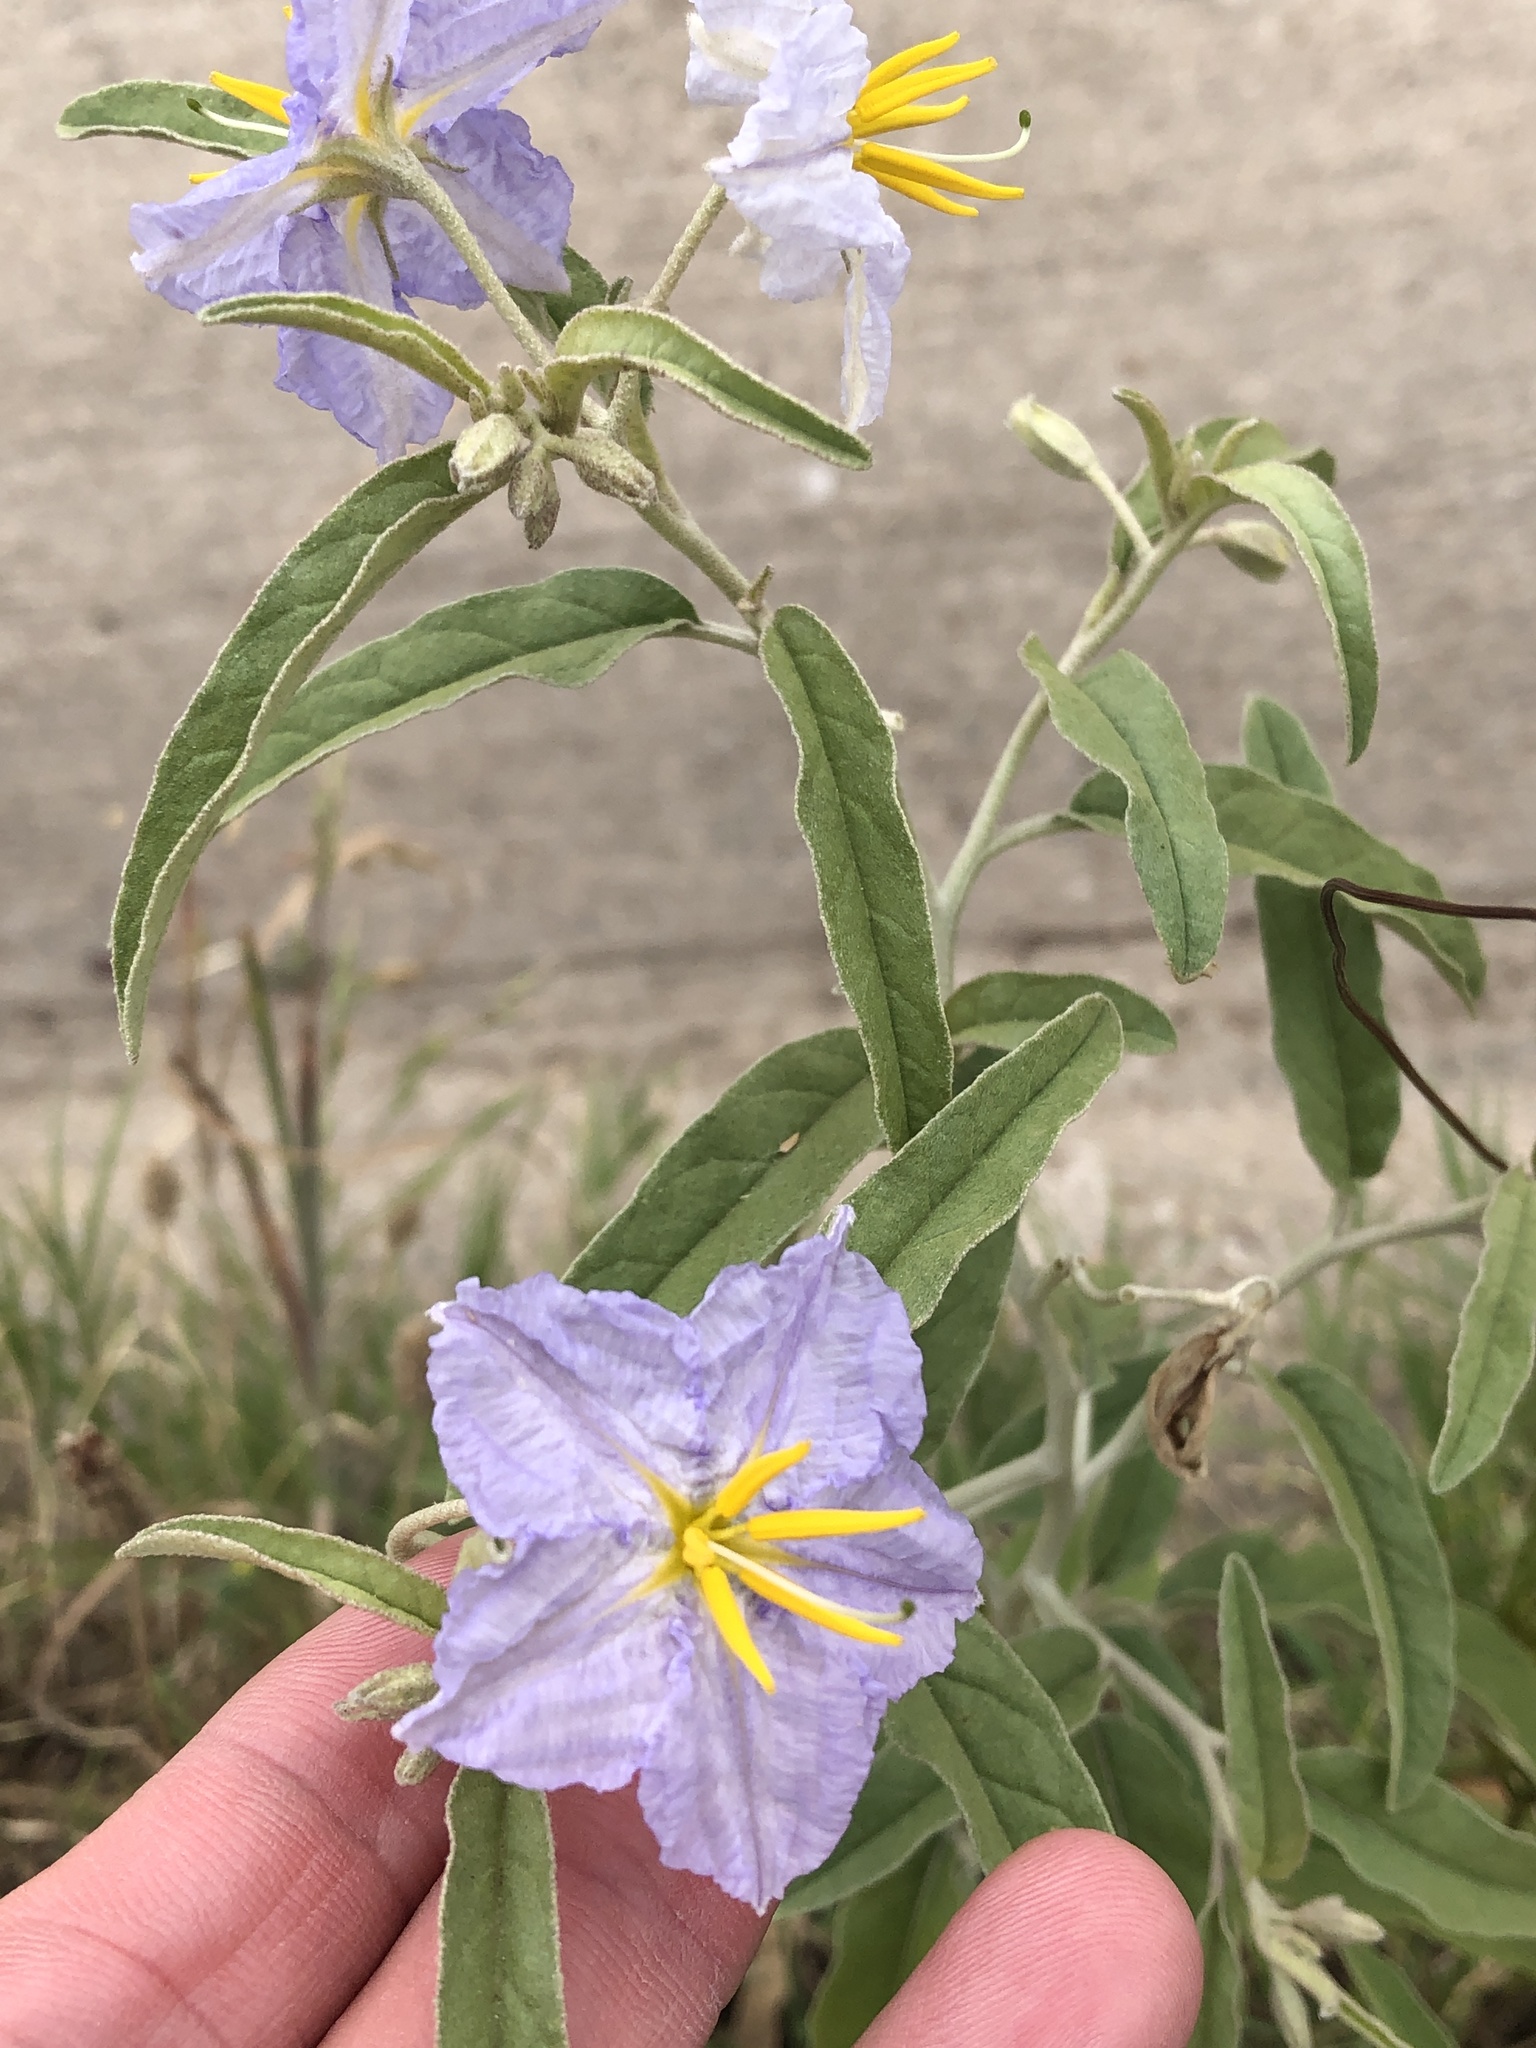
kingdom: Plantae
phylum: Tracheophyta
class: Magnoliopsida
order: Solanales
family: Solanaceae
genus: Solanum
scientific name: Solanum elaeagnifolium
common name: Silverleaf nightshade
